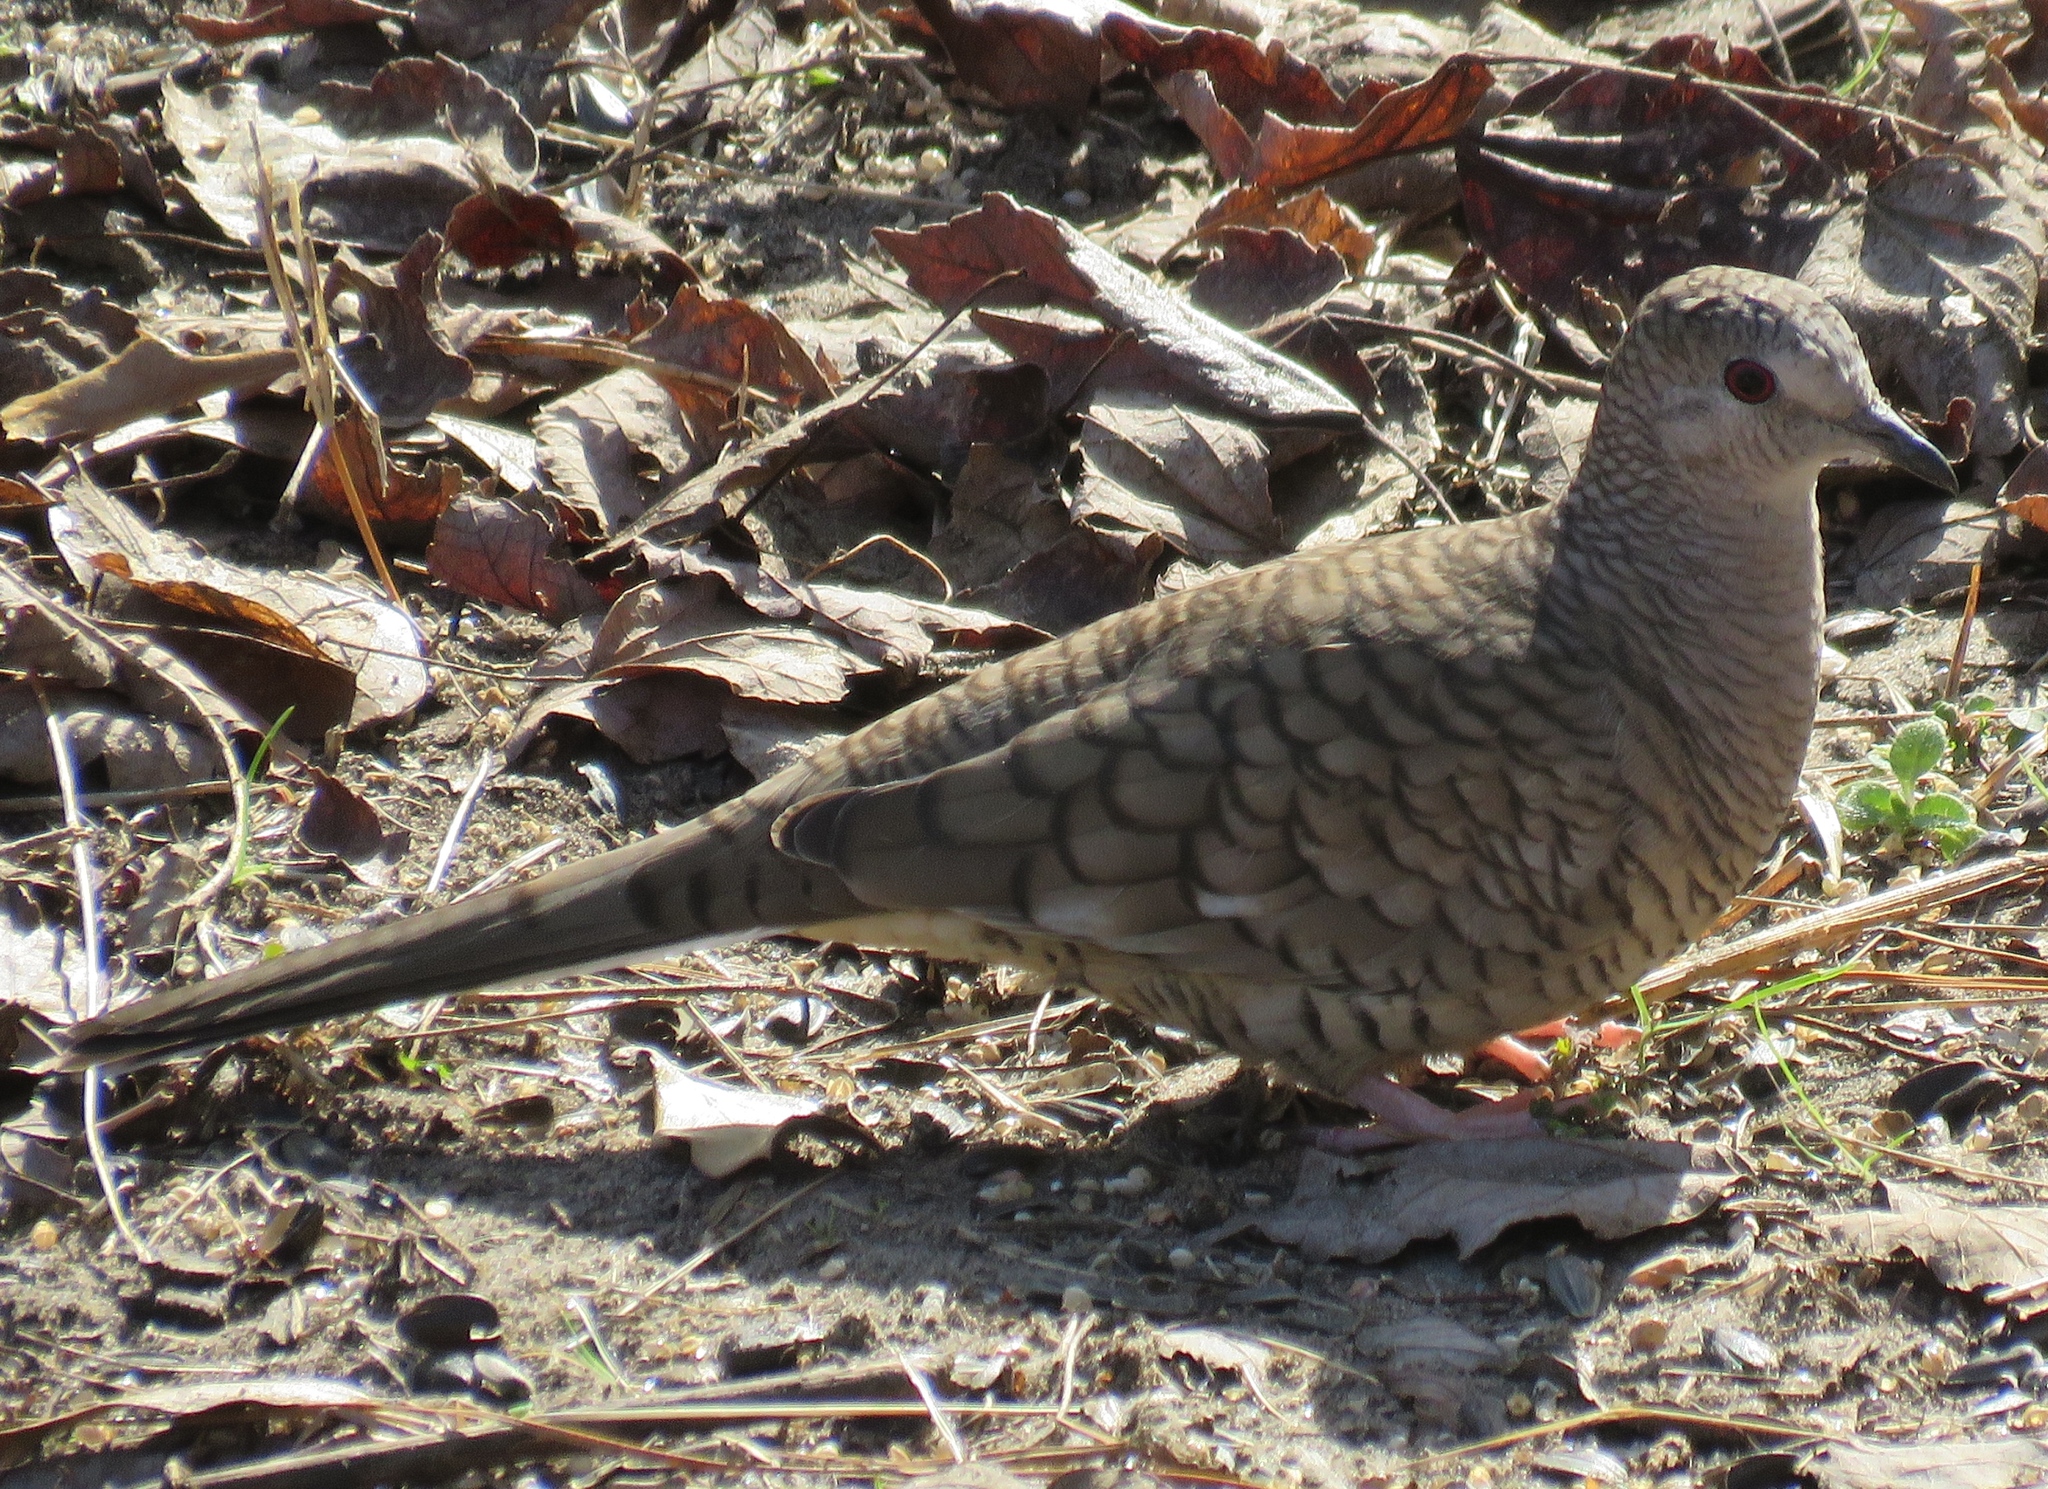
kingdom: Animalia
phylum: Chordata
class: Aves
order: Columbiformes
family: Columbidae
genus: Columbina
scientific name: Columbina inca
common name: Inca dove
